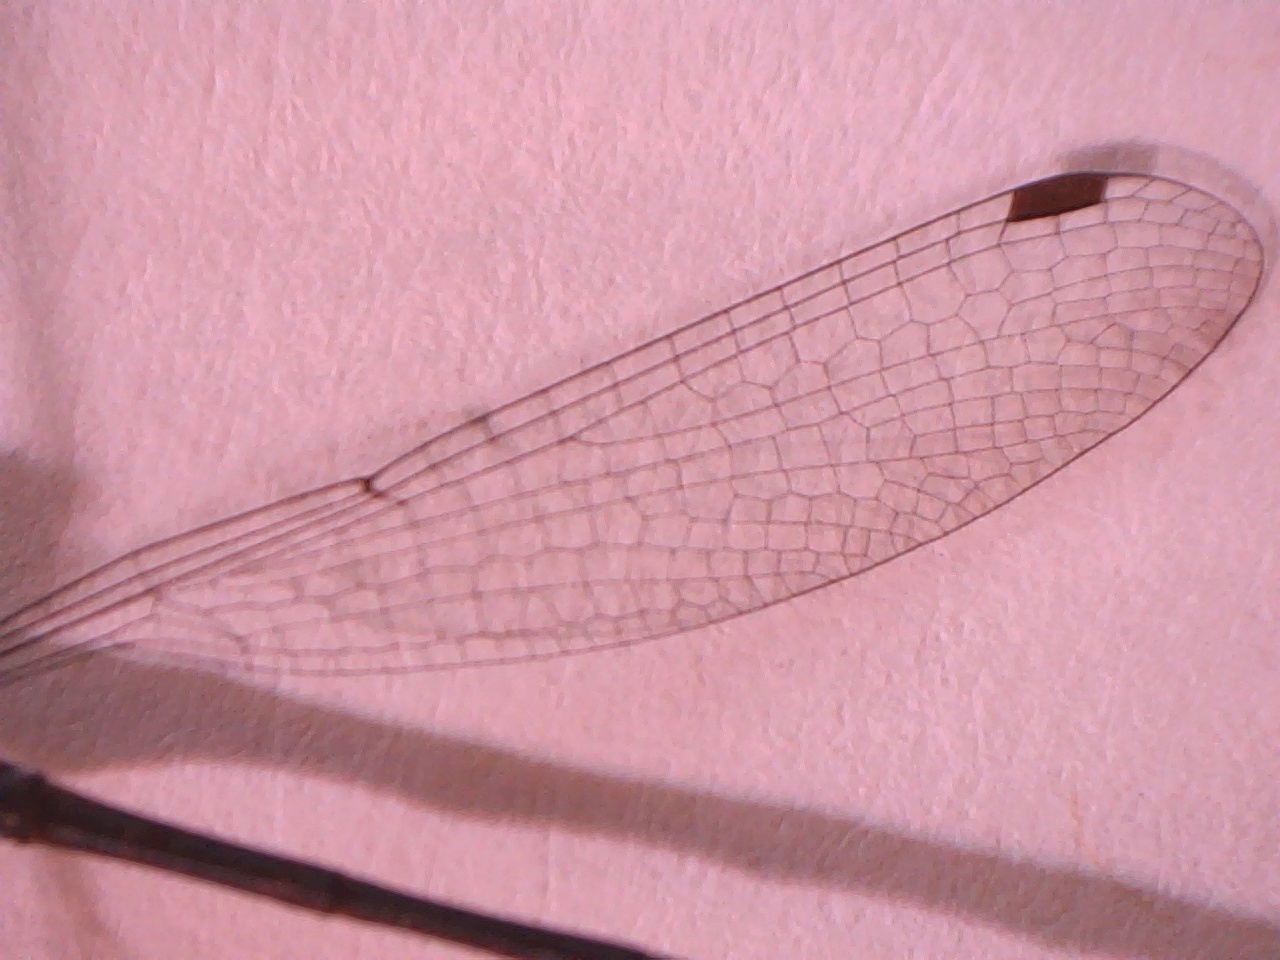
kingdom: Animalia
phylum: Arthropoda
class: Insecta
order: Odonata
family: Lestidae
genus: Lestes
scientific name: Lestes congener
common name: Spotted spreadwing
